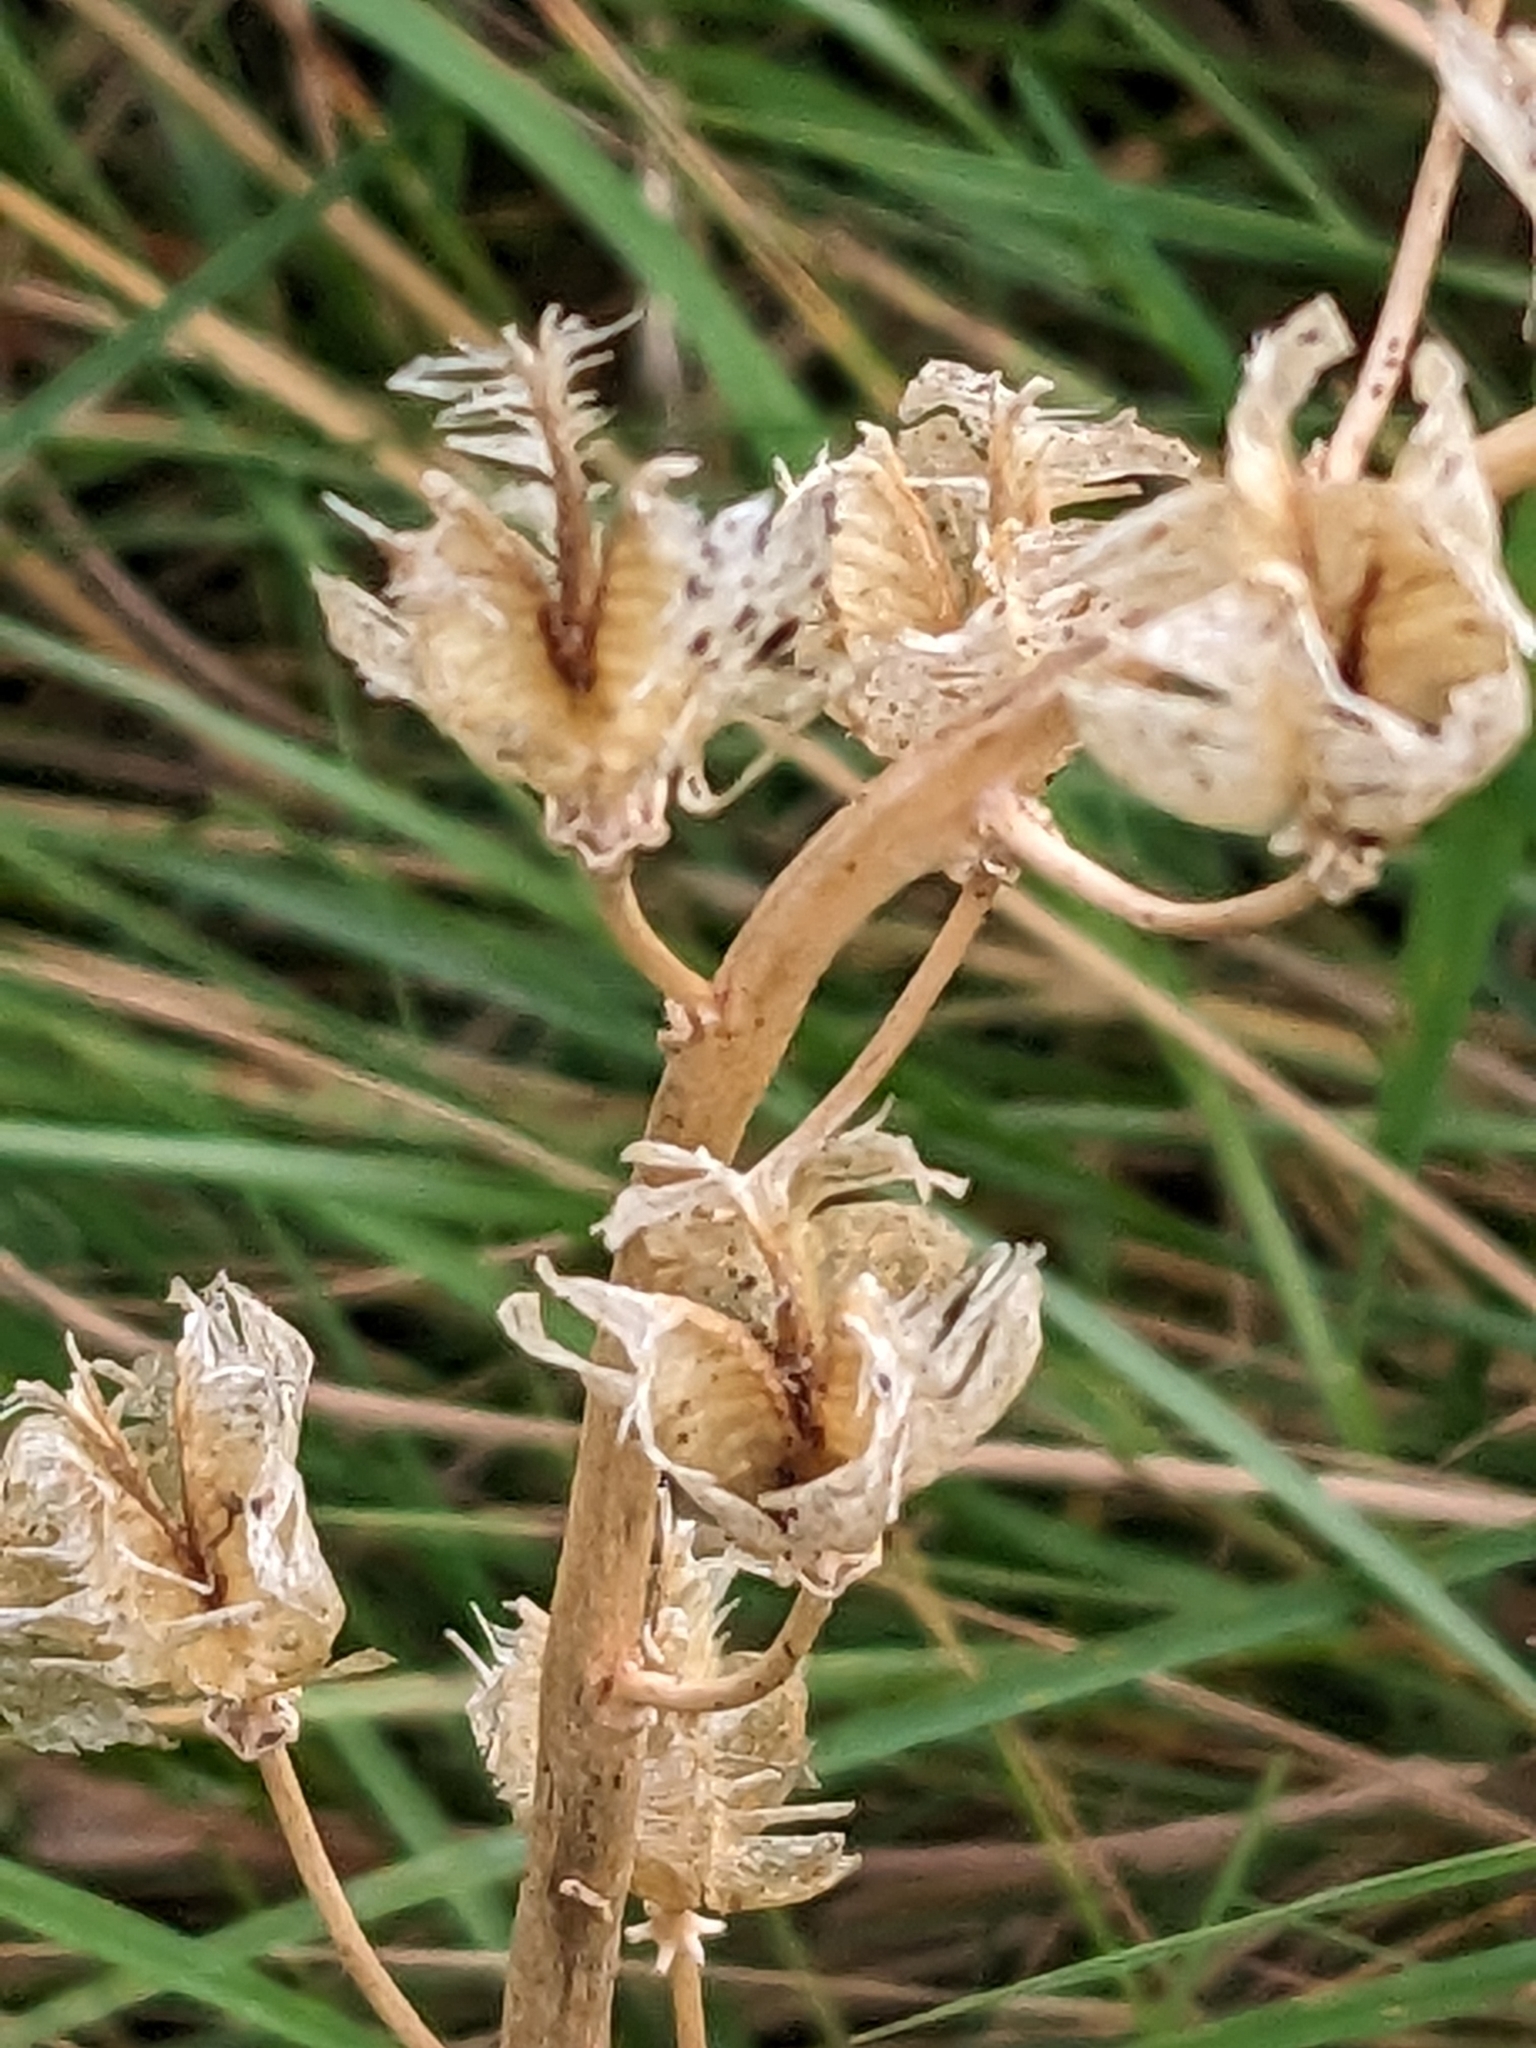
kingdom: Plantae
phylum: Tracheophyta
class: Liliopsida
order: Asparagales
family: Asparagaceae
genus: Hyacinthoides
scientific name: Hyacinthoides non-scripta
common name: Bluebell
